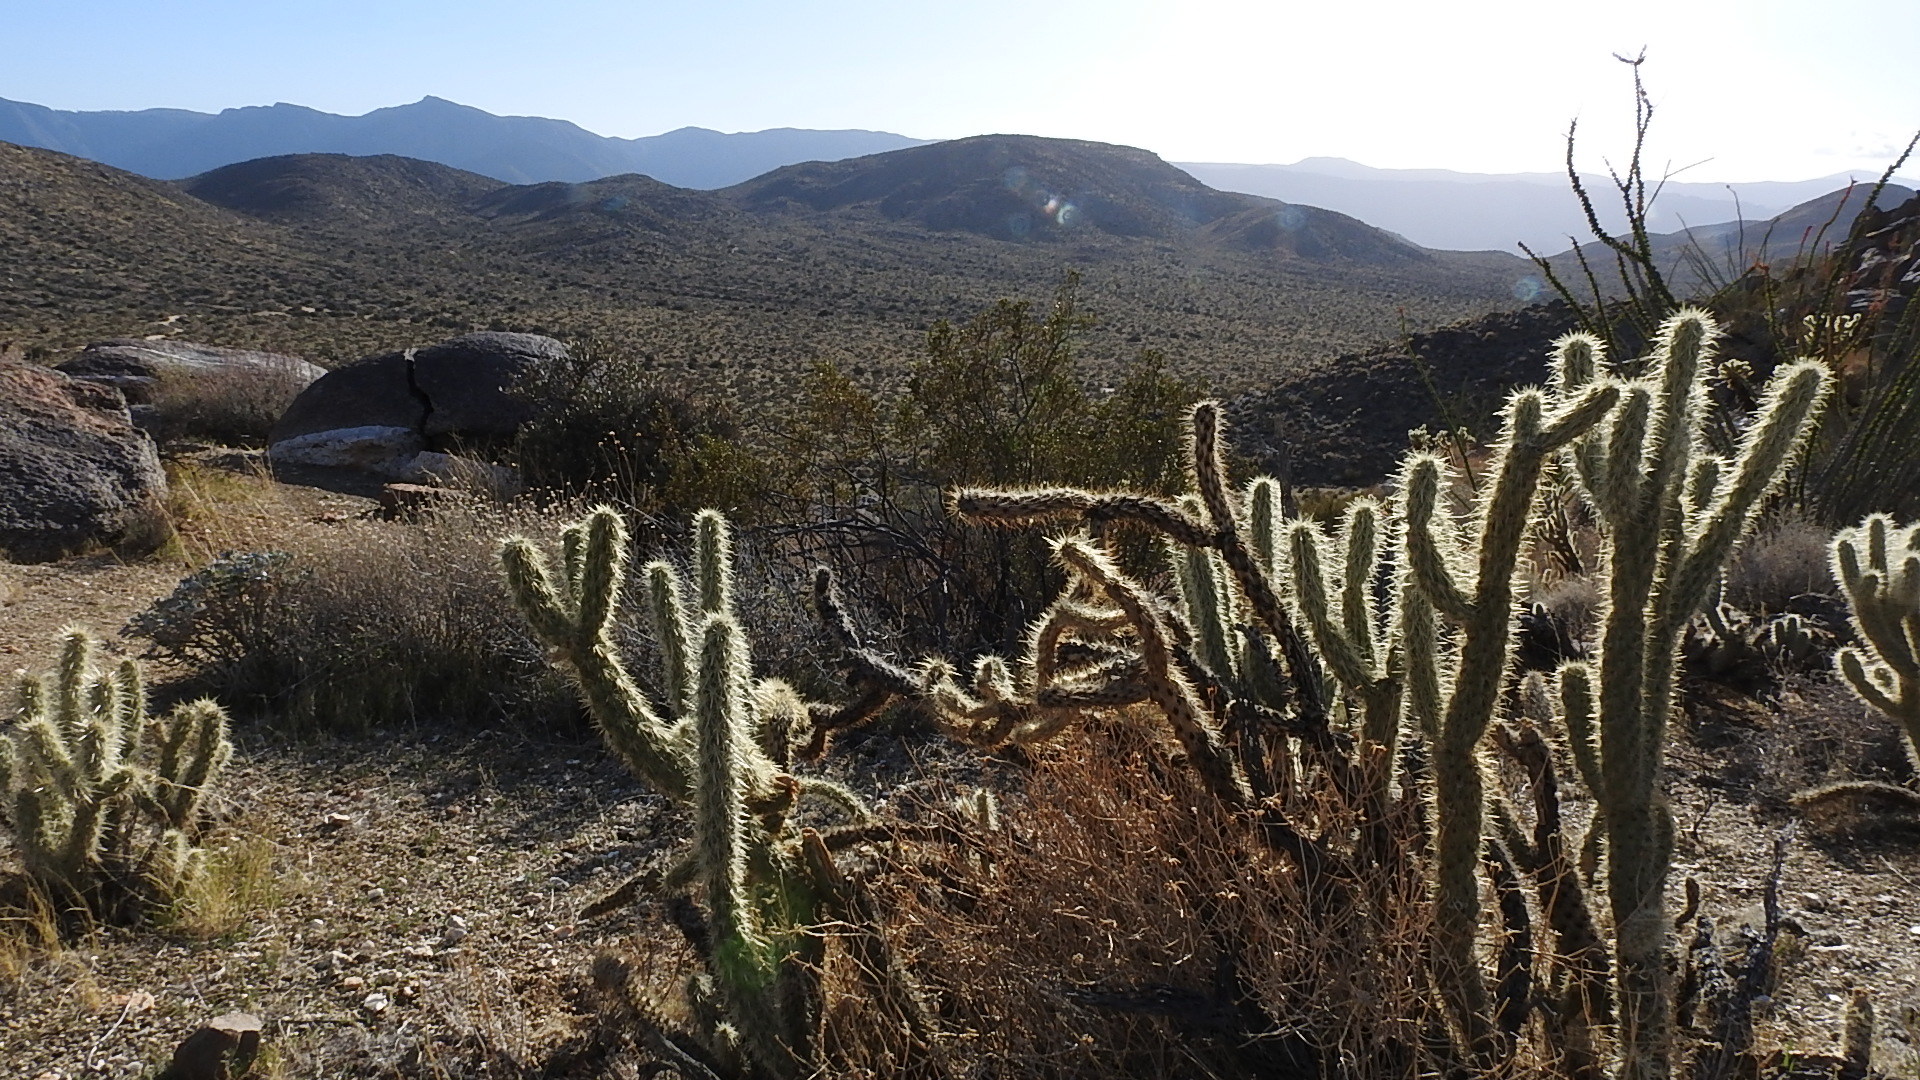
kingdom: Plantae
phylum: Tracheophyta
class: Magnoliopsida
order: Caryophyllales
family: Cactaceae
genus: Cylindropuntia
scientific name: Cylindropuntia ganderi
